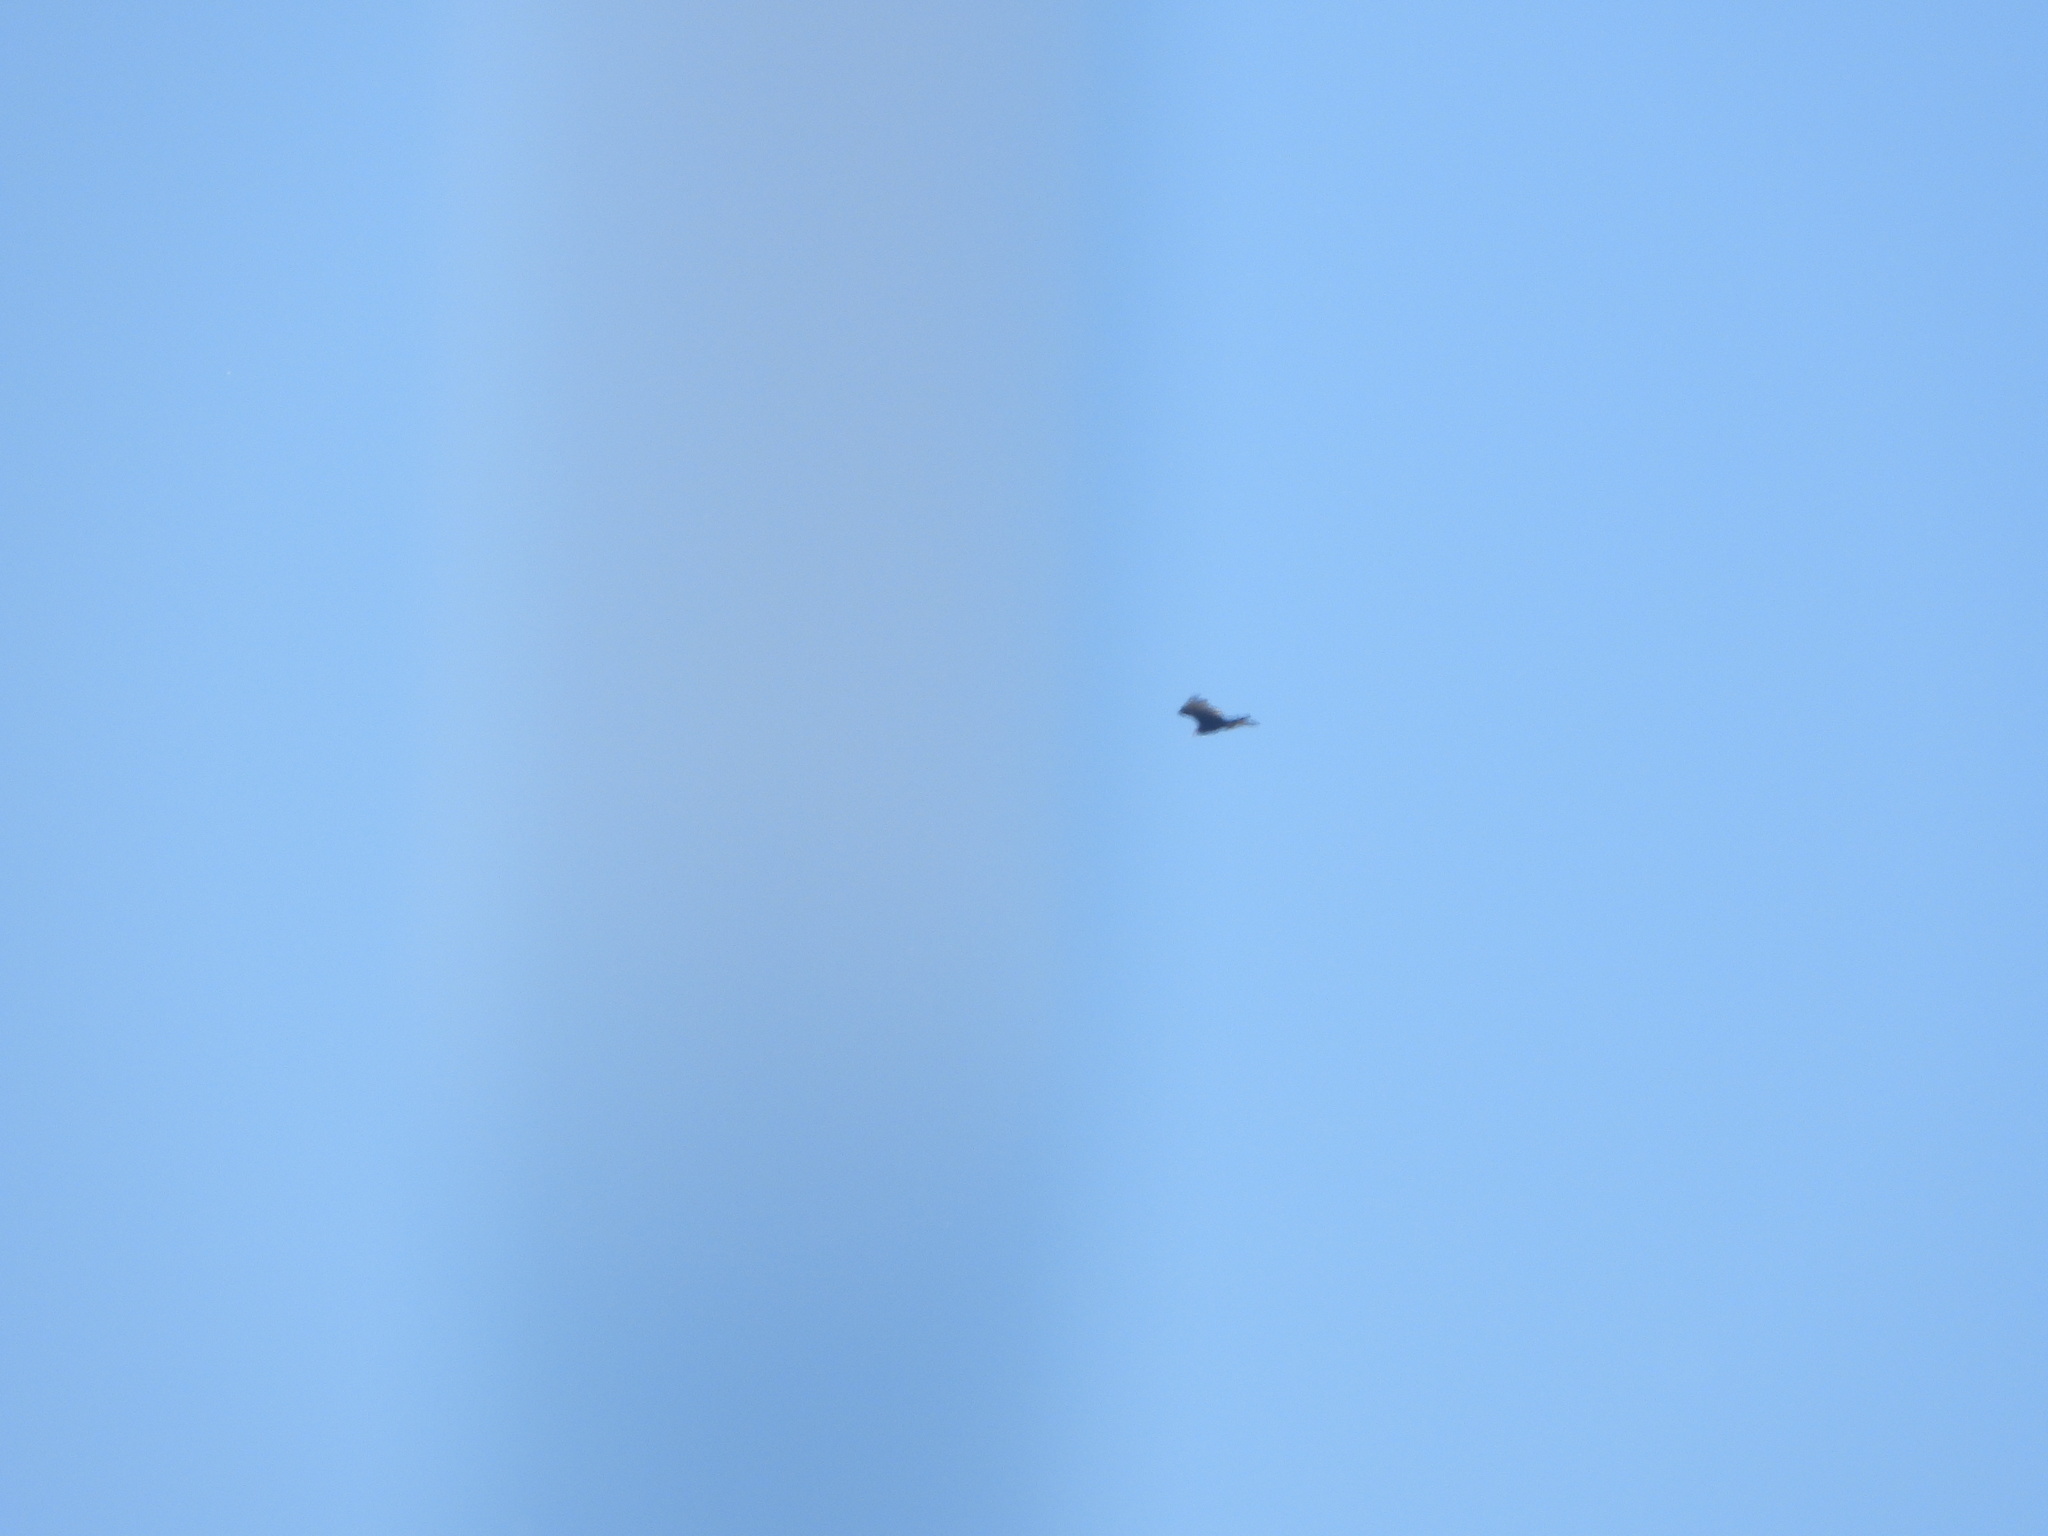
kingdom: Animalia
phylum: Chordata
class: Aves
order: Accipitriformes
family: Cathartidae
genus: Cathartes
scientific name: Cathartes aura
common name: Turkey vulture
